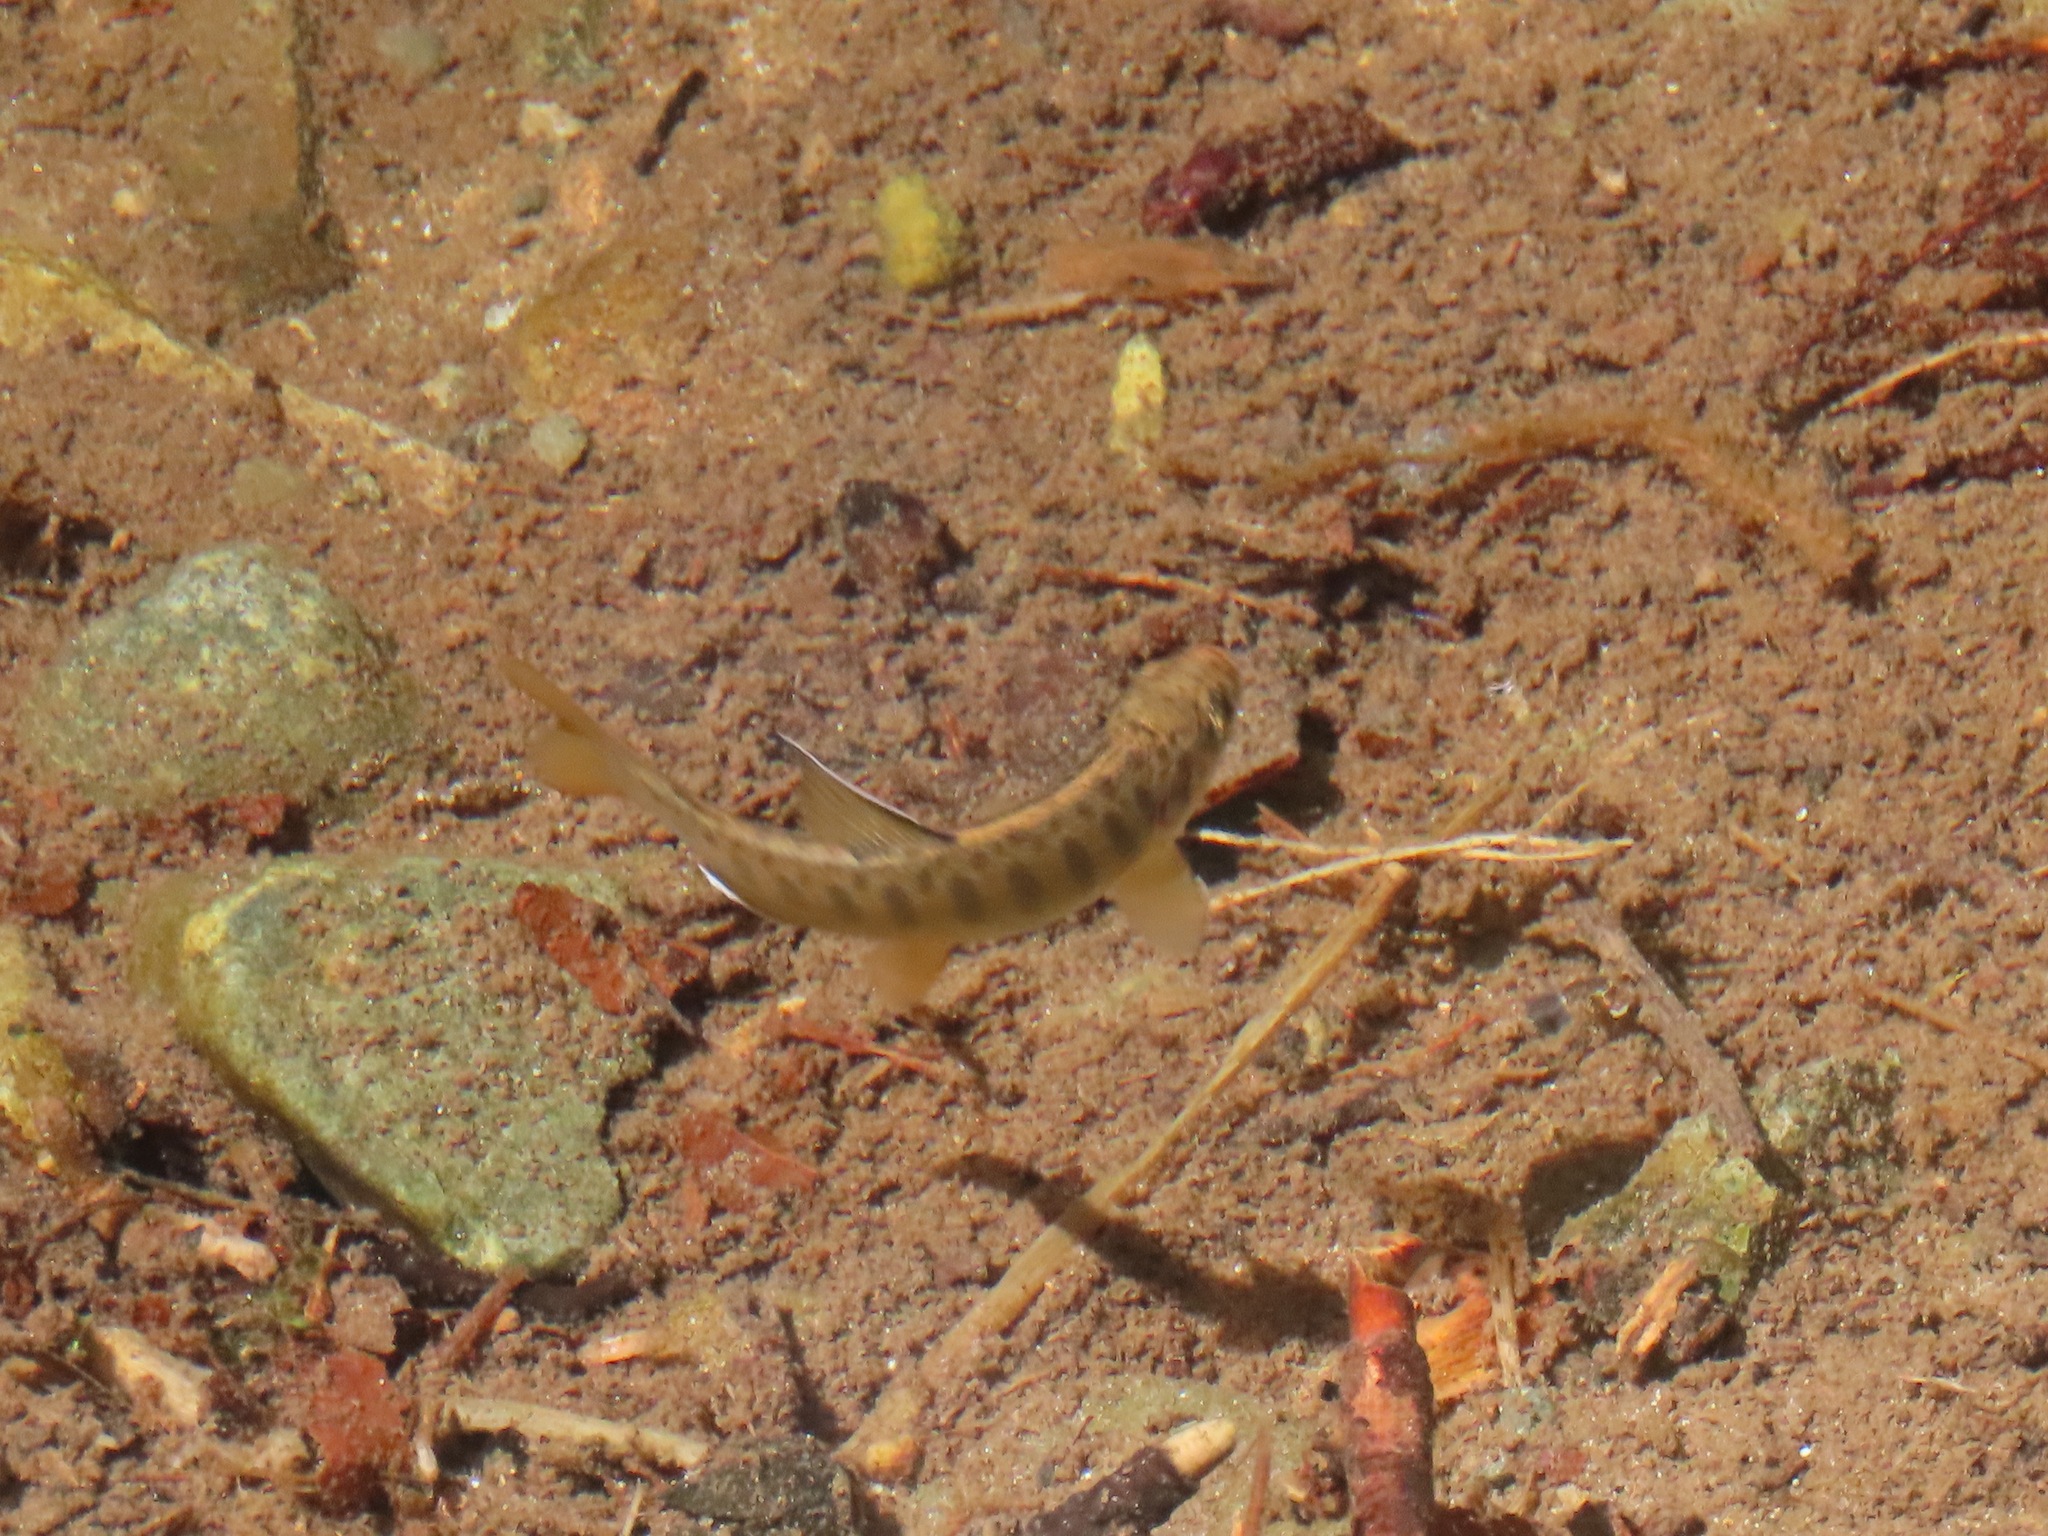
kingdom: Animalia
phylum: Chordata
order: Salmoniformes
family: Salmonidae
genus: Oncorhynchus
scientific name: Oncorhynchus kisutch
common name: Coho salmon
